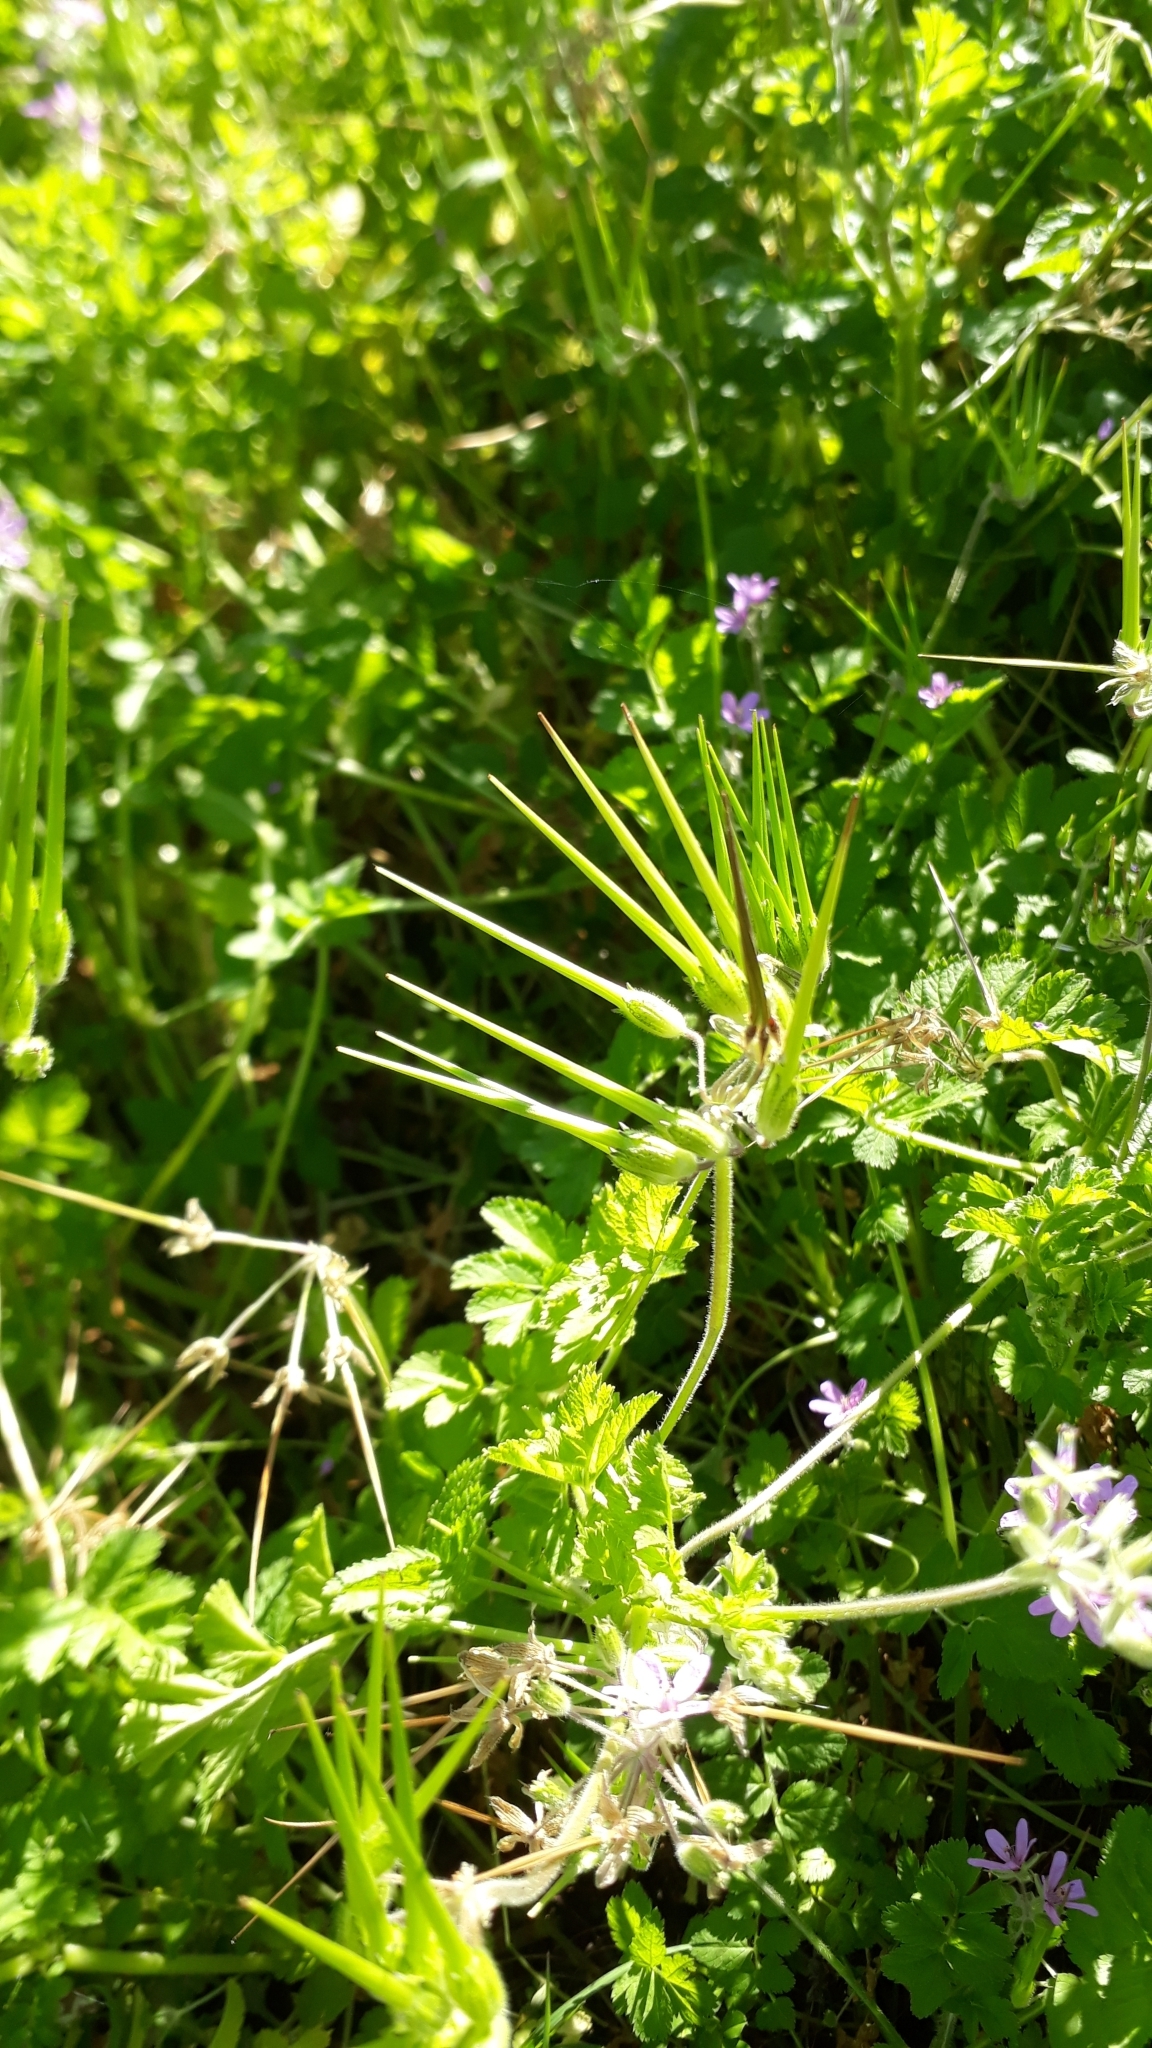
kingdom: Plantae
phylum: Tracheophyta
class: Magnoliopsida
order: Geraniales
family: Geraniaceae
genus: Erodium
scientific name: Erodium moschatum
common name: Musk stork's-bill
